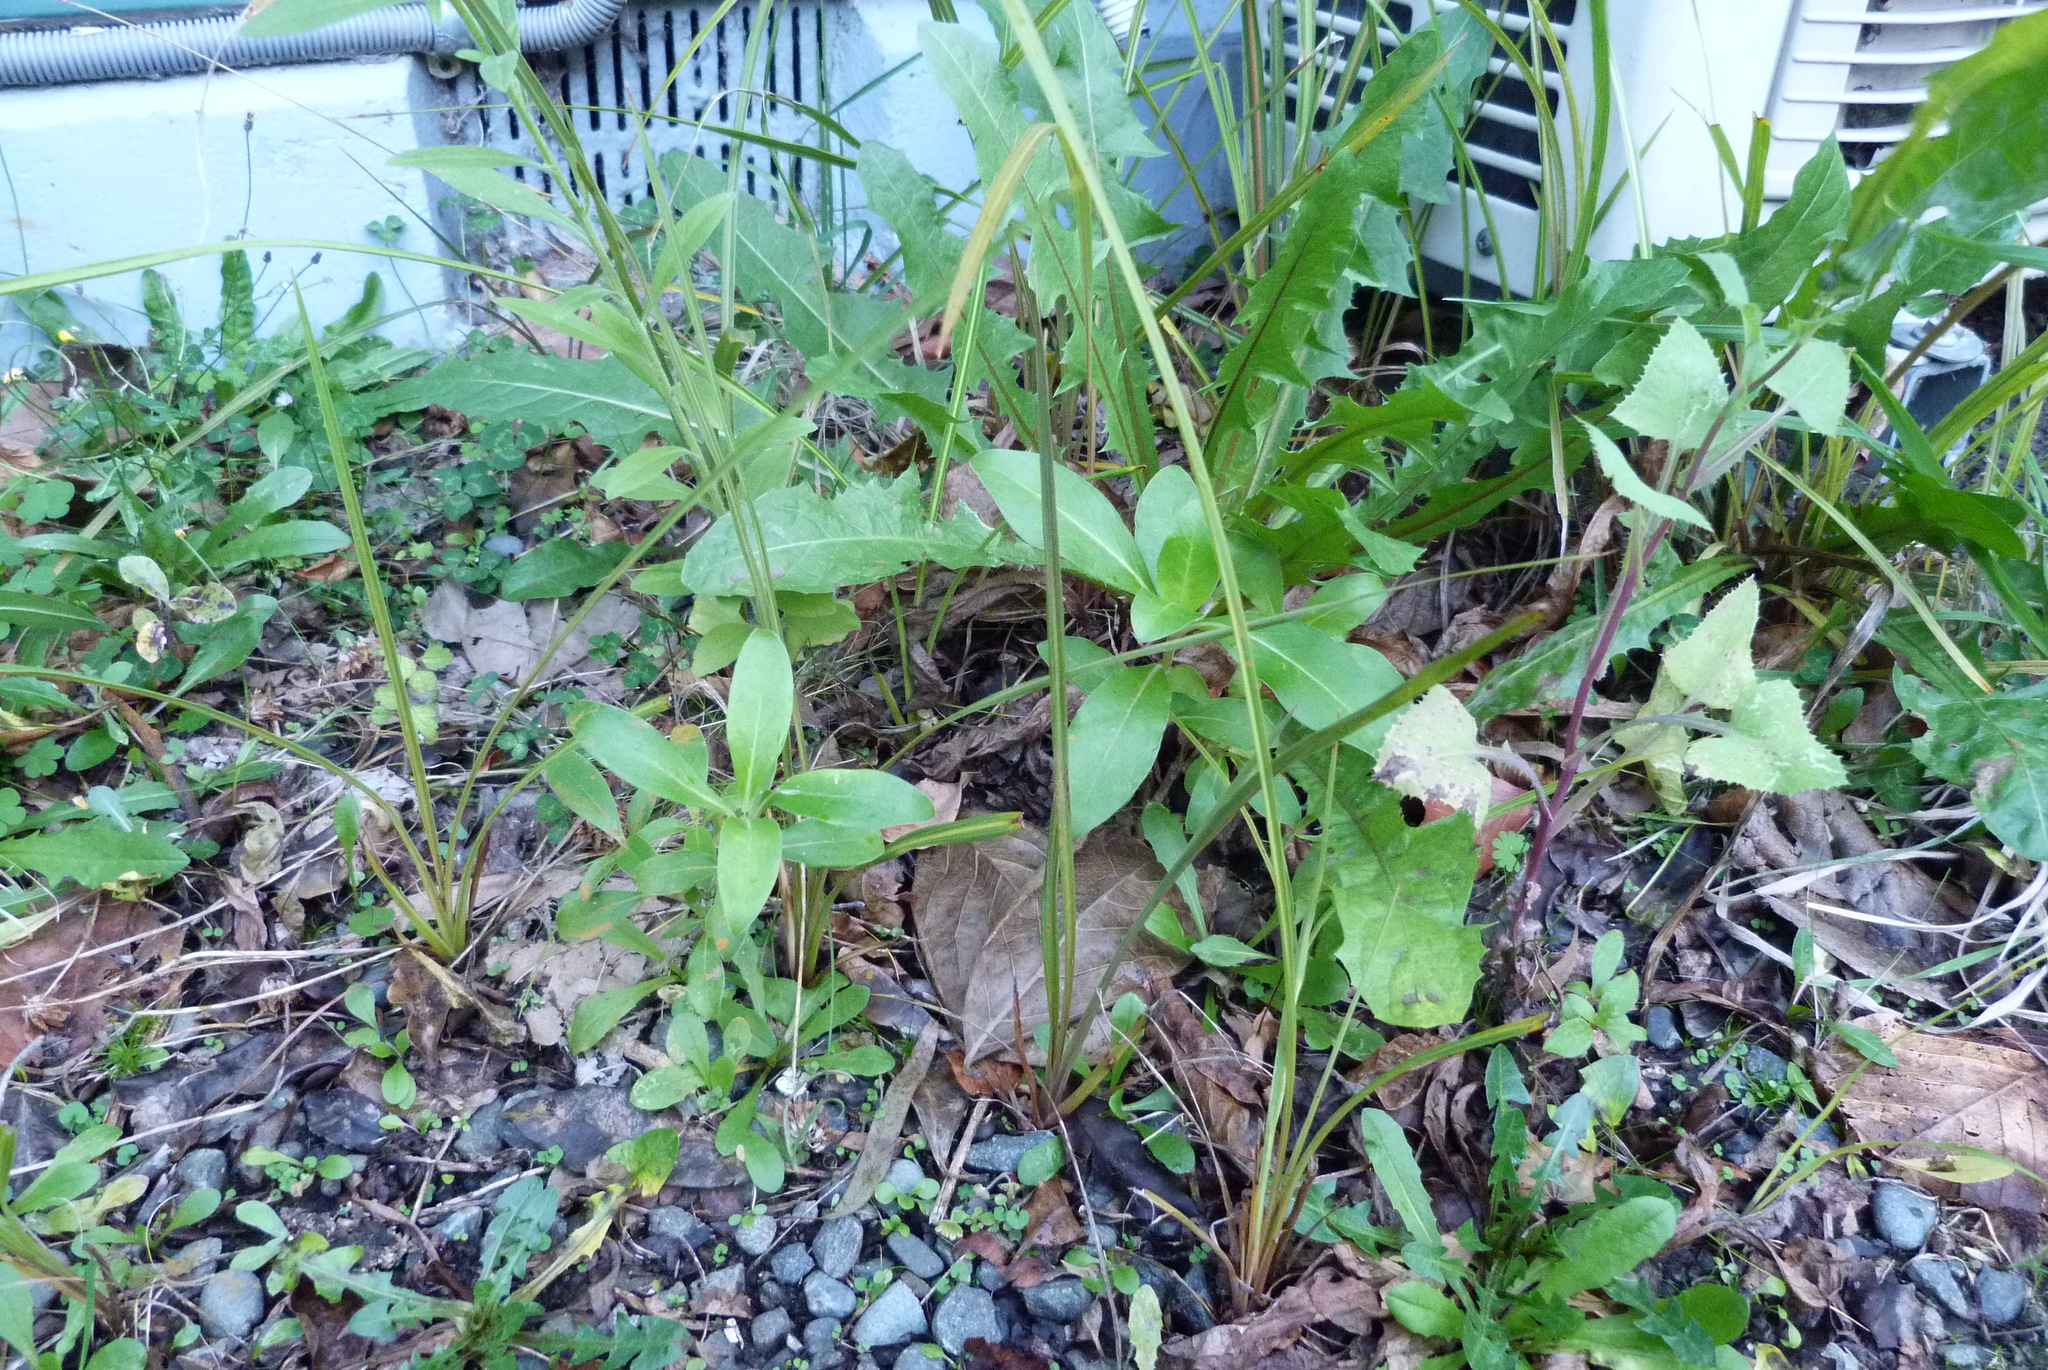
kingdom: Plantae
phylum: Tracheophyta
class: Magnoliopsida
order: Gentianales
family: Rubiaceae
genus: Coprosma
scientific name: Coprosma robusta
